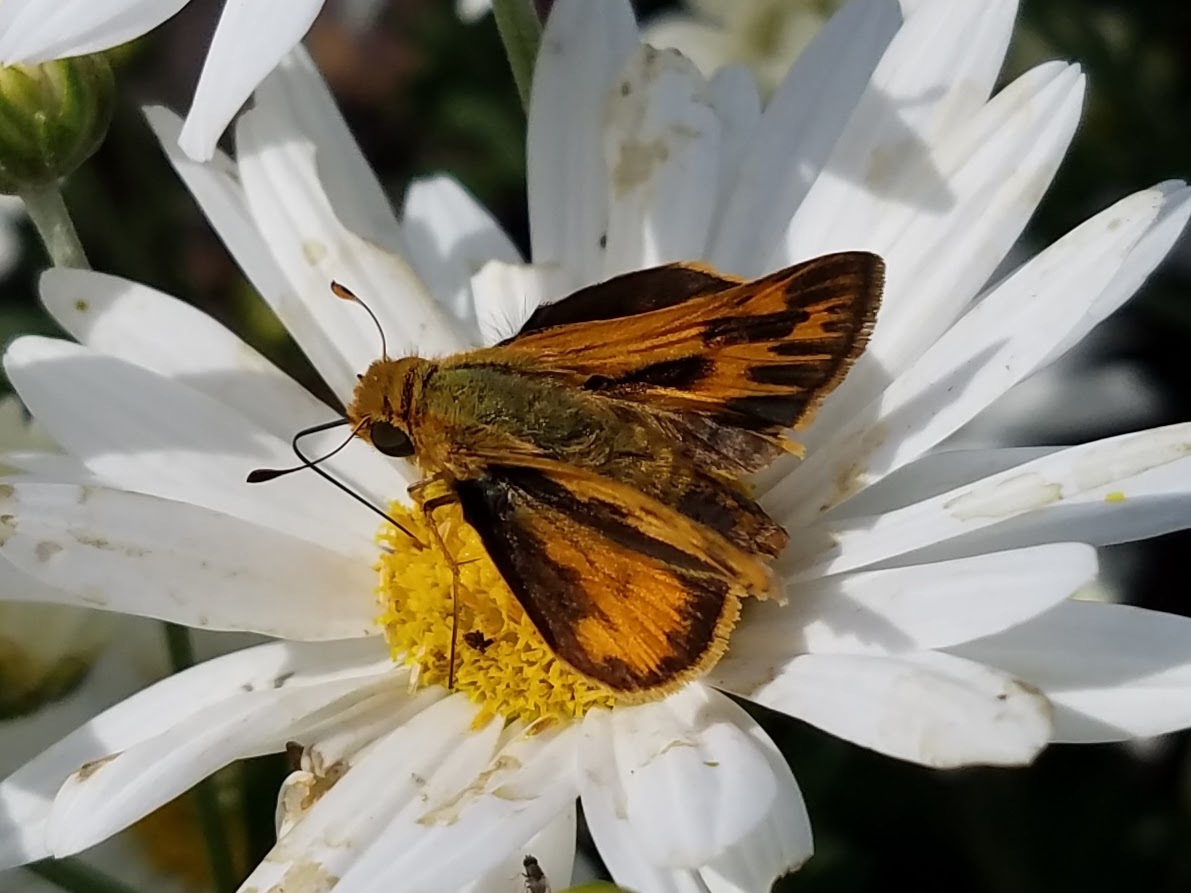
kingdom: Animalia
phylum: Arthropoda
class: Insecta
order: Lepidoptera
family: Hesperiidae
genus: Hylephila
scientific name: Hylephila phyleus
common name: Fiery skipper
